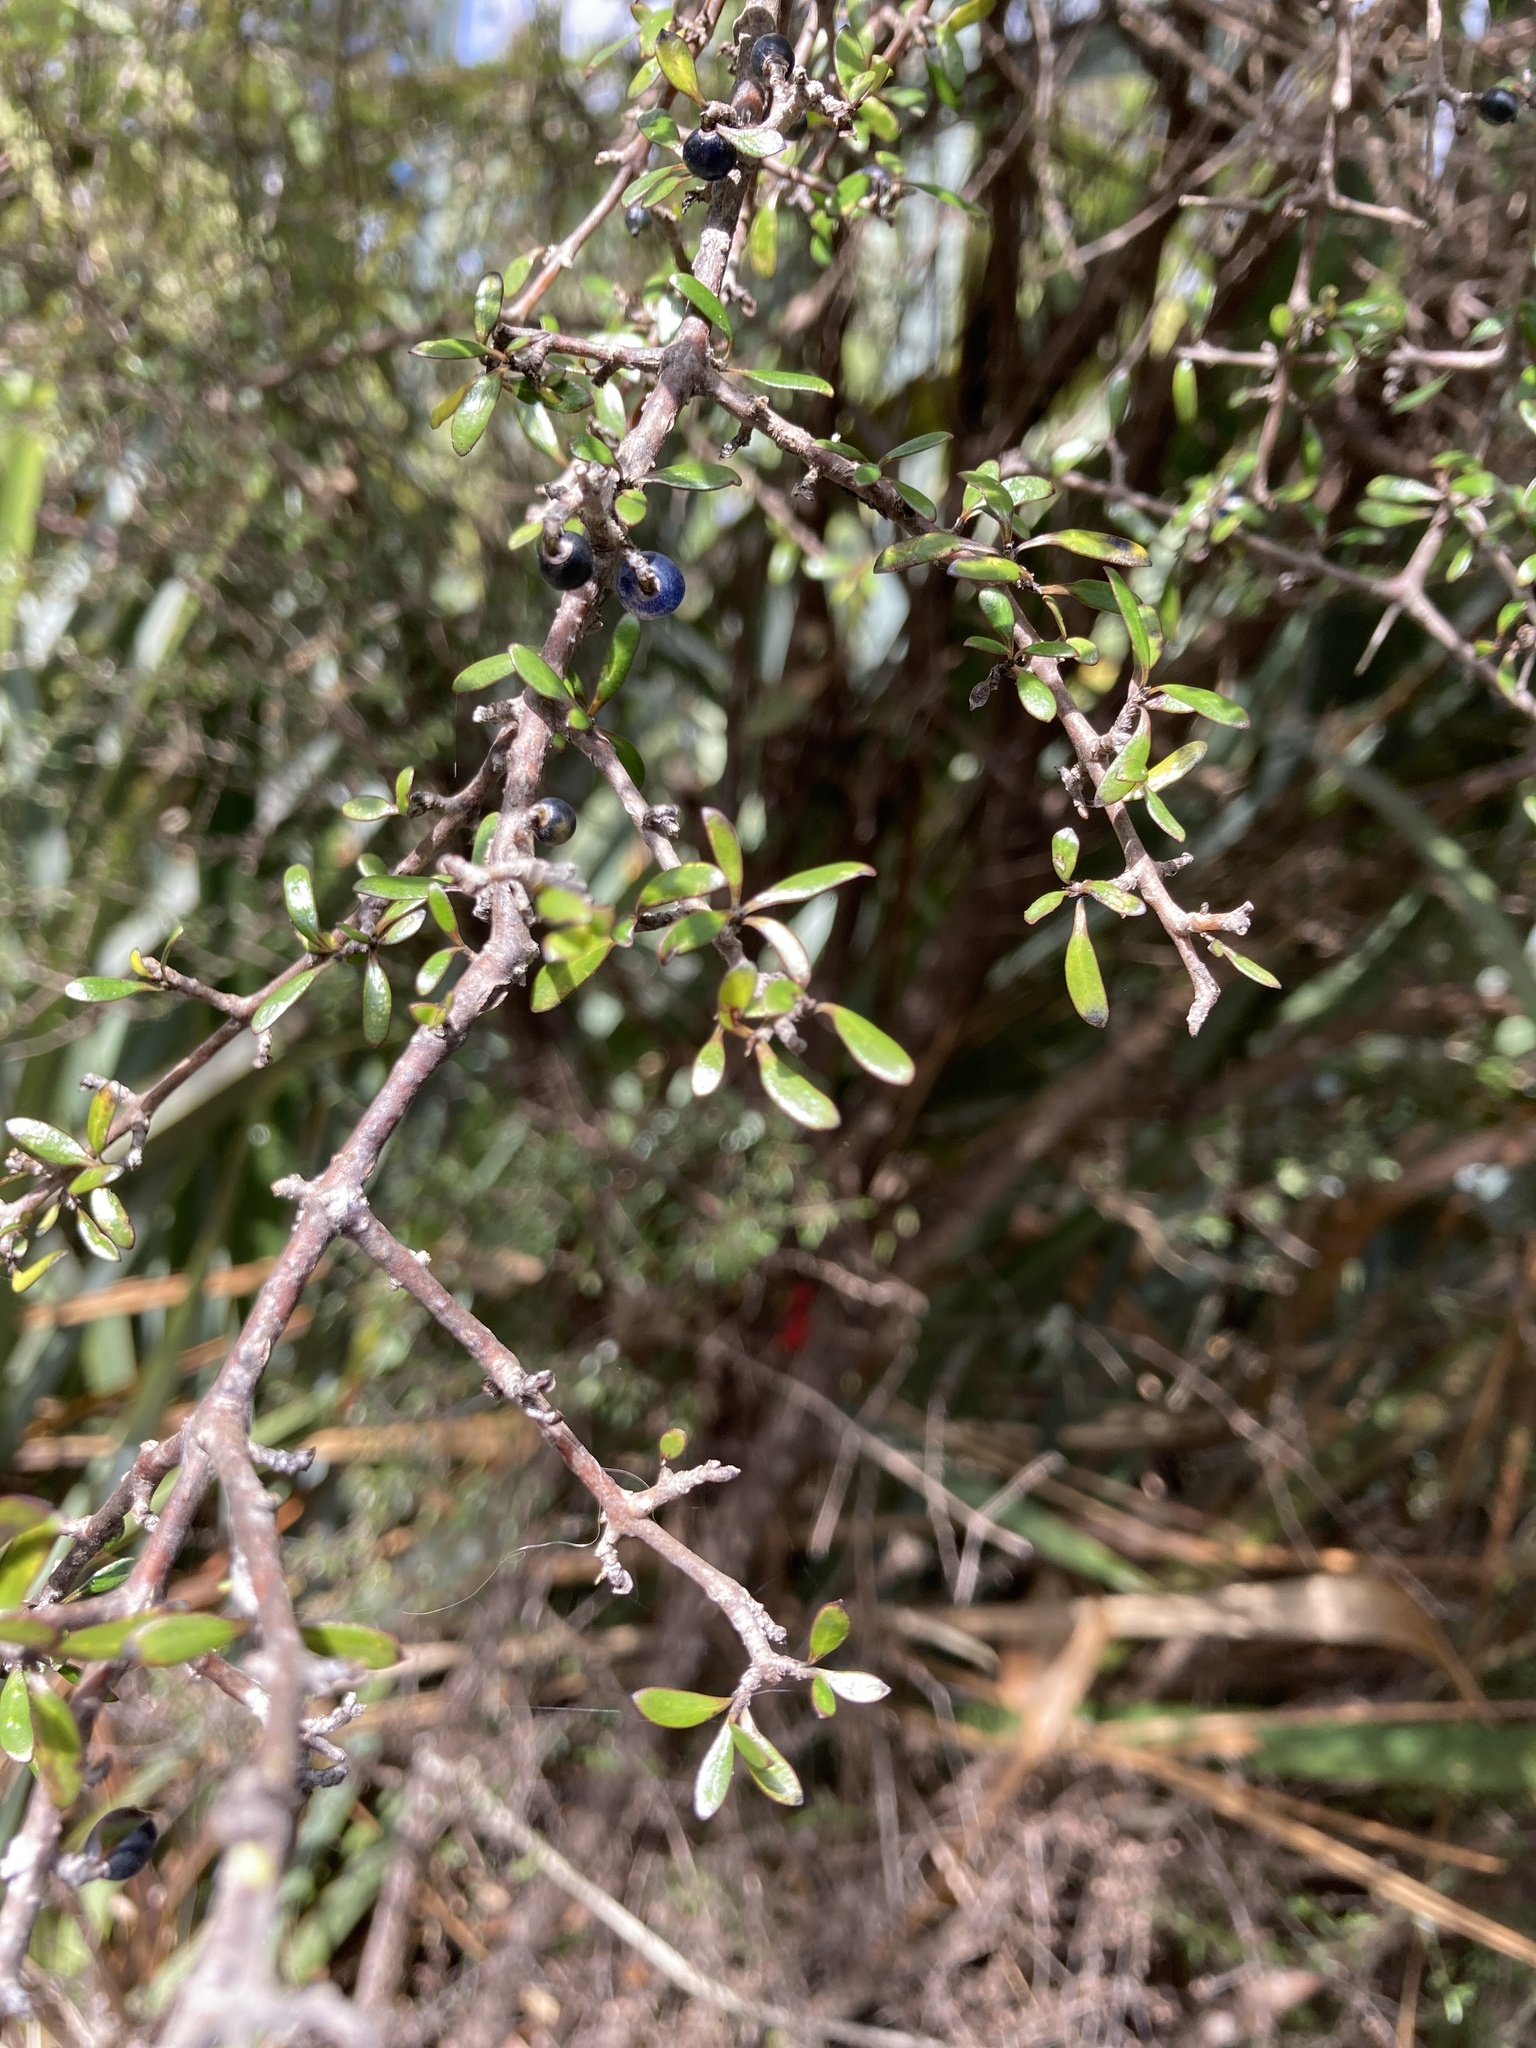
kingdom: Plantae
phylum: Tracheophyta
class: Magnoliopsida
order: Gentianales
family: Rubiaceae
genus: Coprosma
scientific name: Coprosma propinqua
